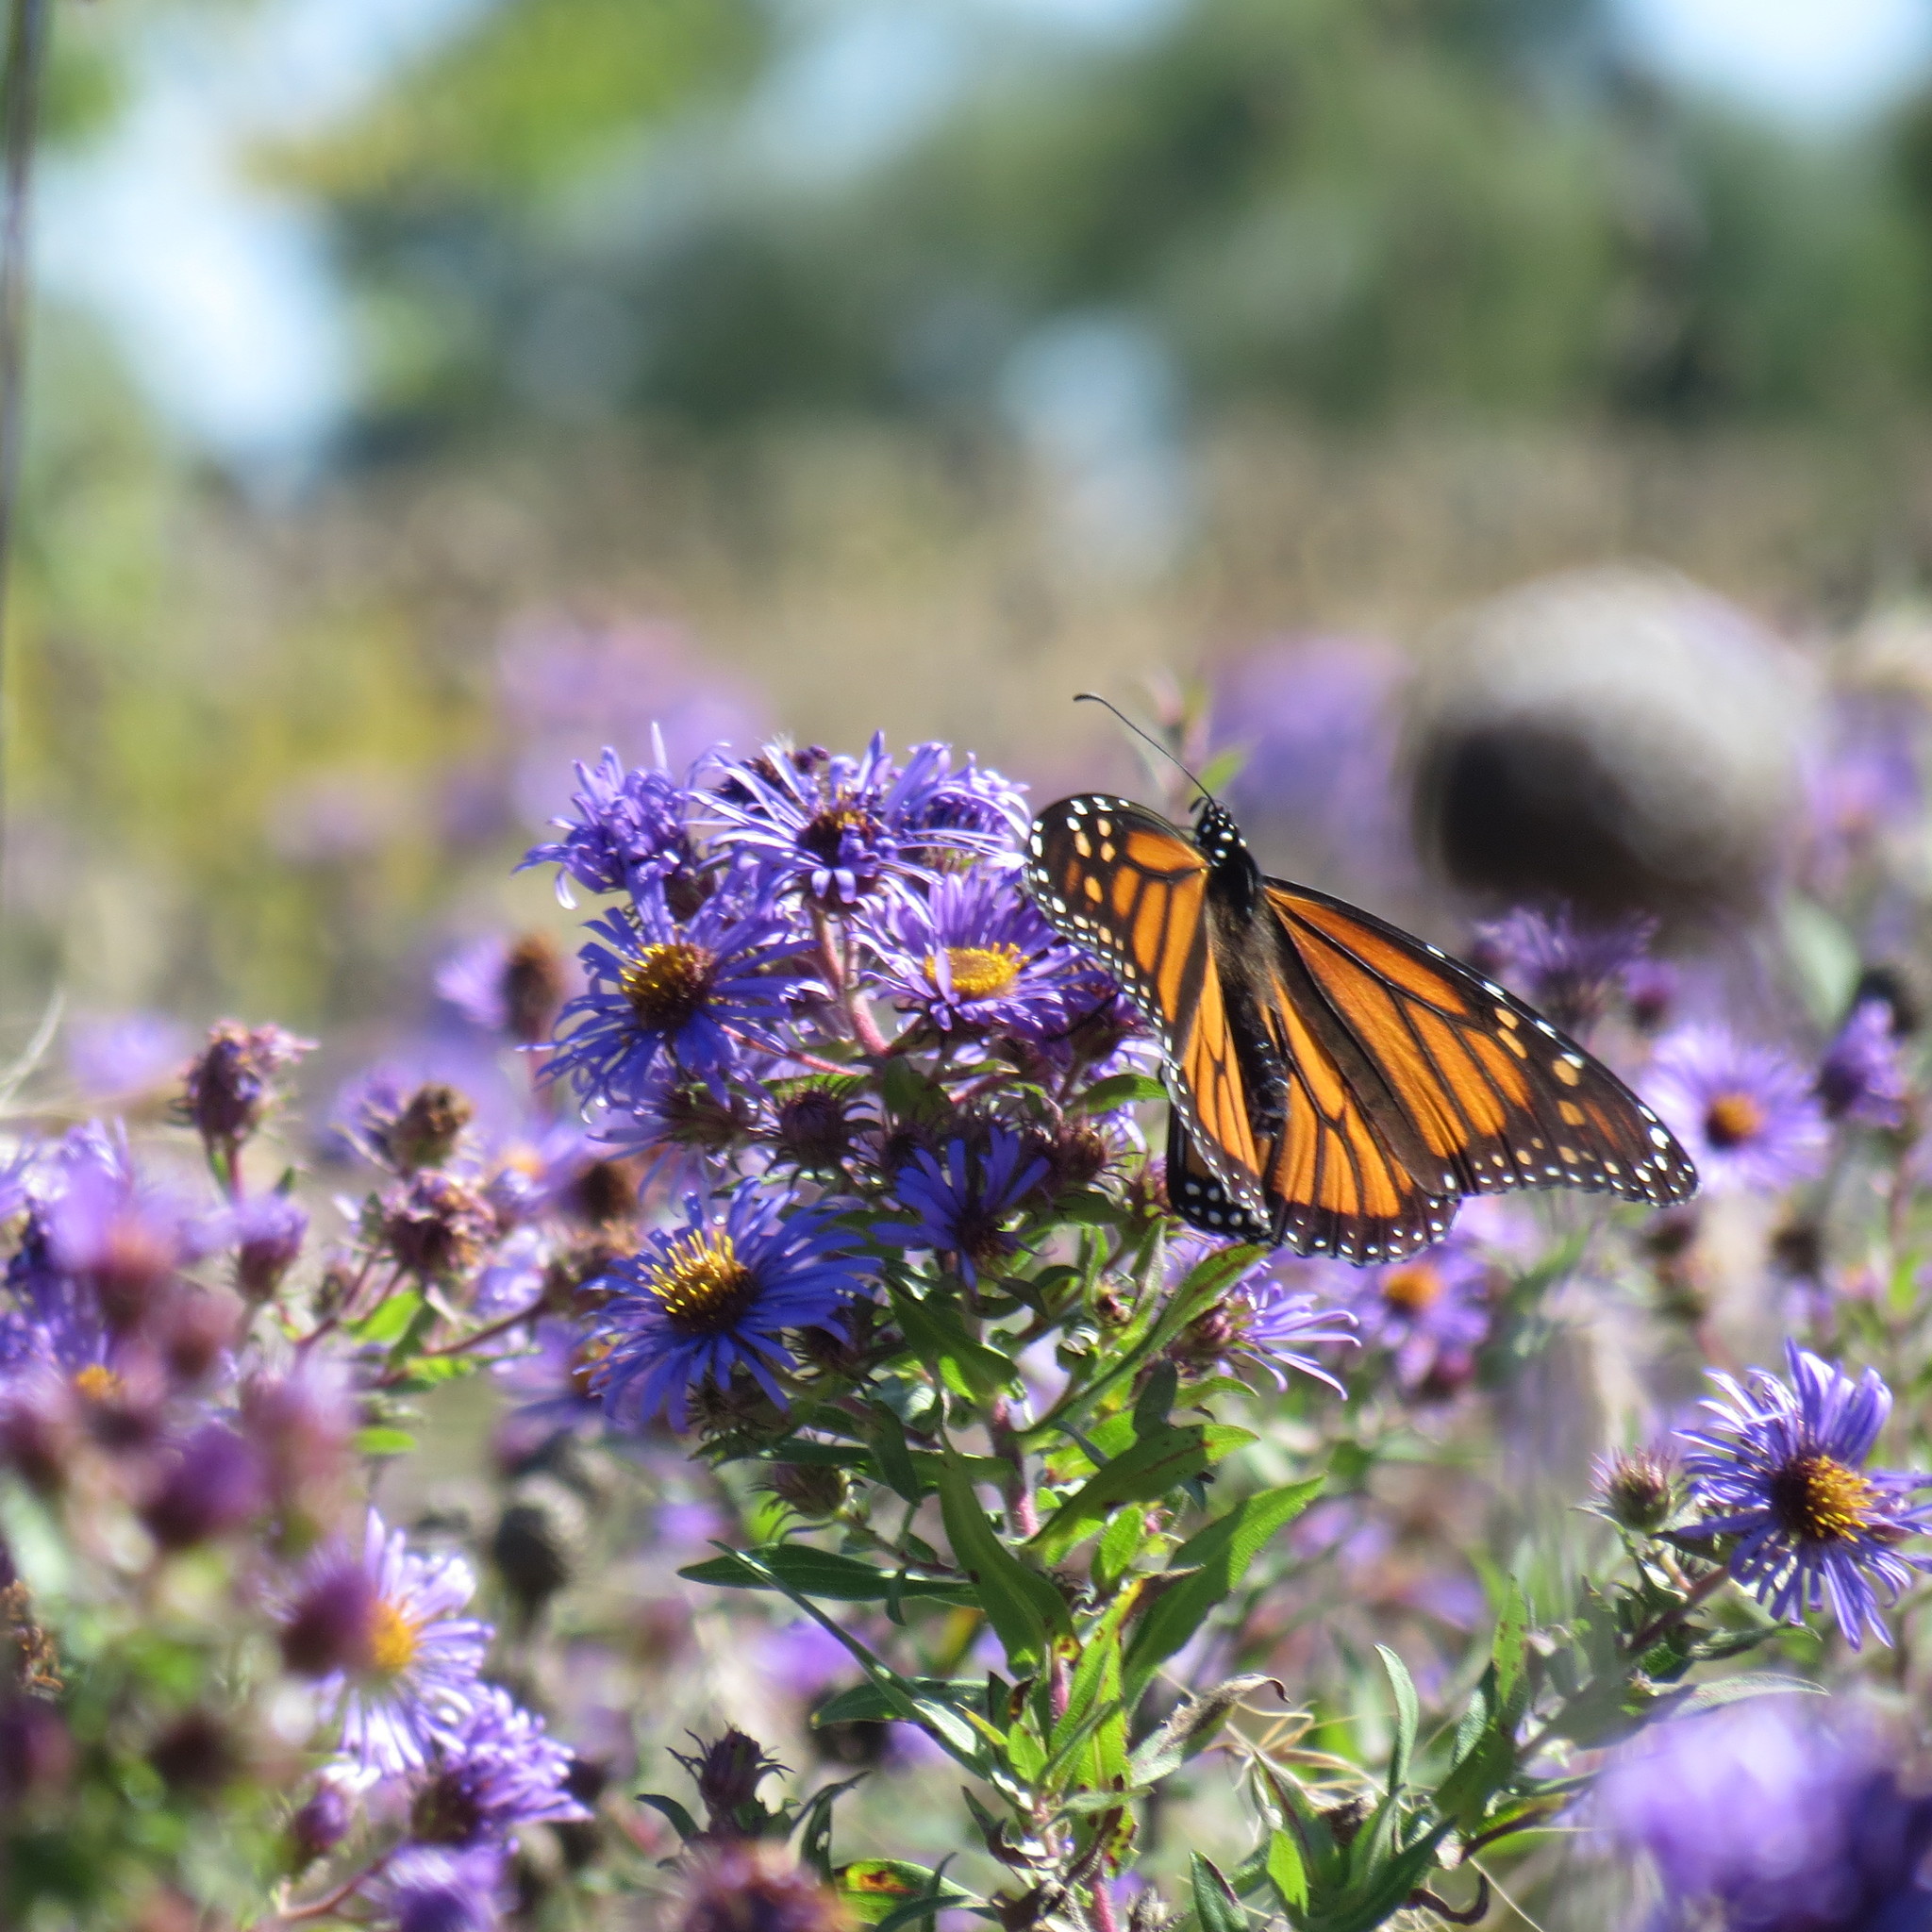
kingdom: Animalia
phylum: Arthropoda
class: Insecta
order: Lepidoptera
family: Nymphalidae
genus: Danaus
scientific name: Danaus plexippus
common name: Monarch
